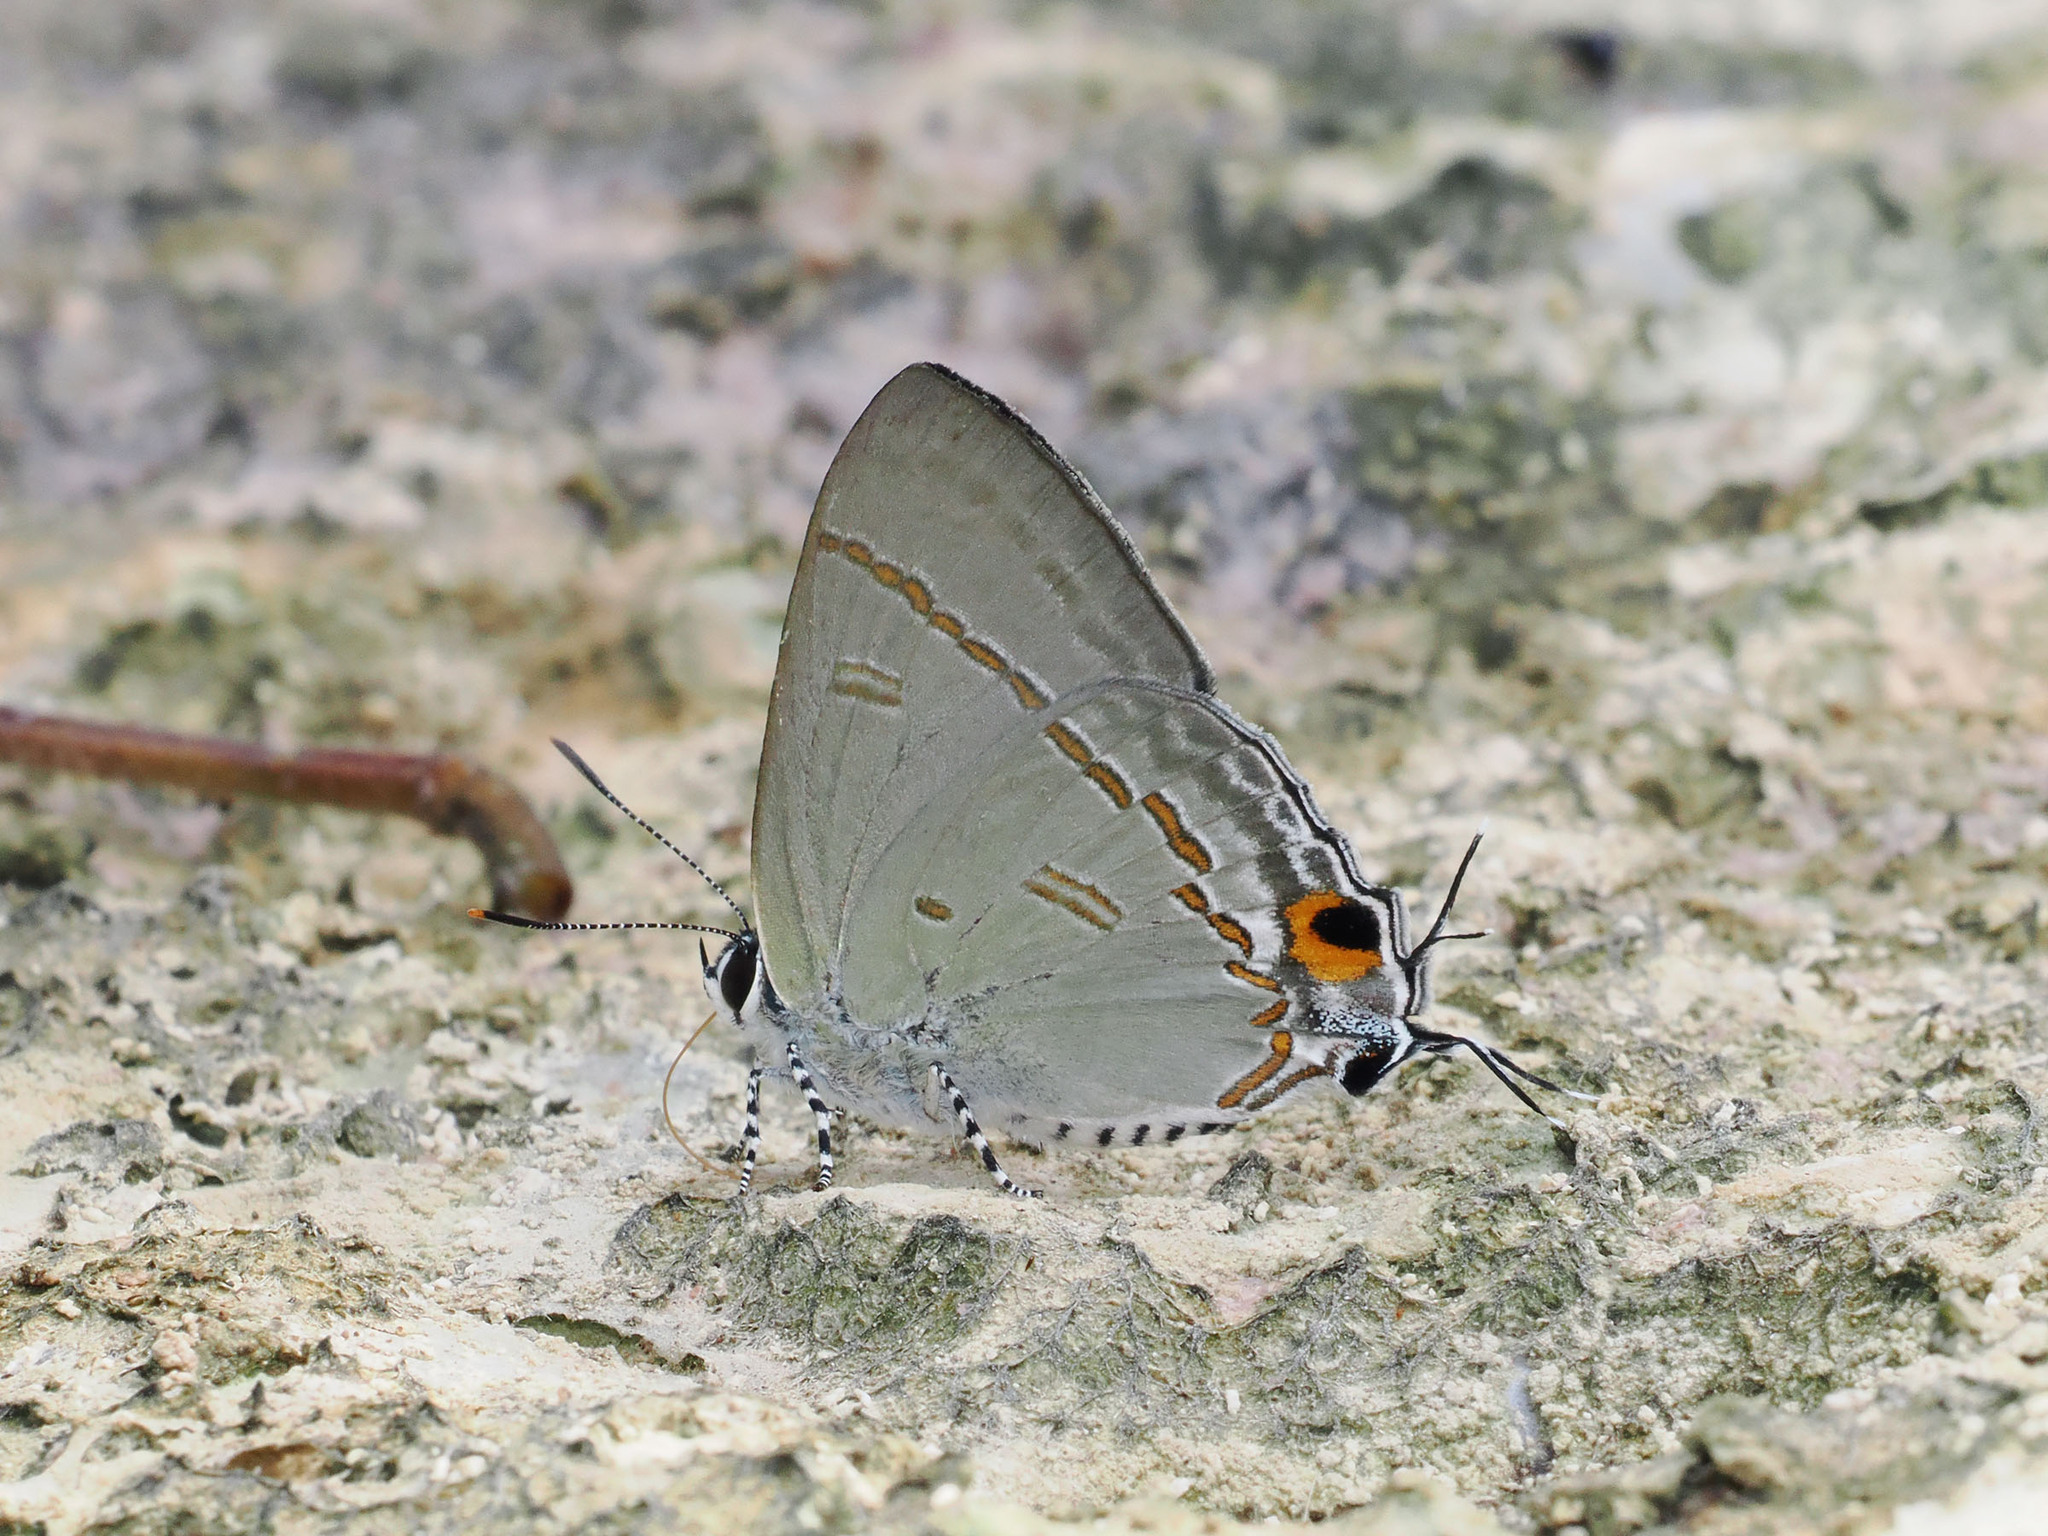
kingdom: Animalia
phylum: Arthropoda
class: Insecta
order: Lepidoptera
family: Lycaenidae
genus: Hypolycaena
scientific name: Hypolycaena erylus
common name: Common tit
